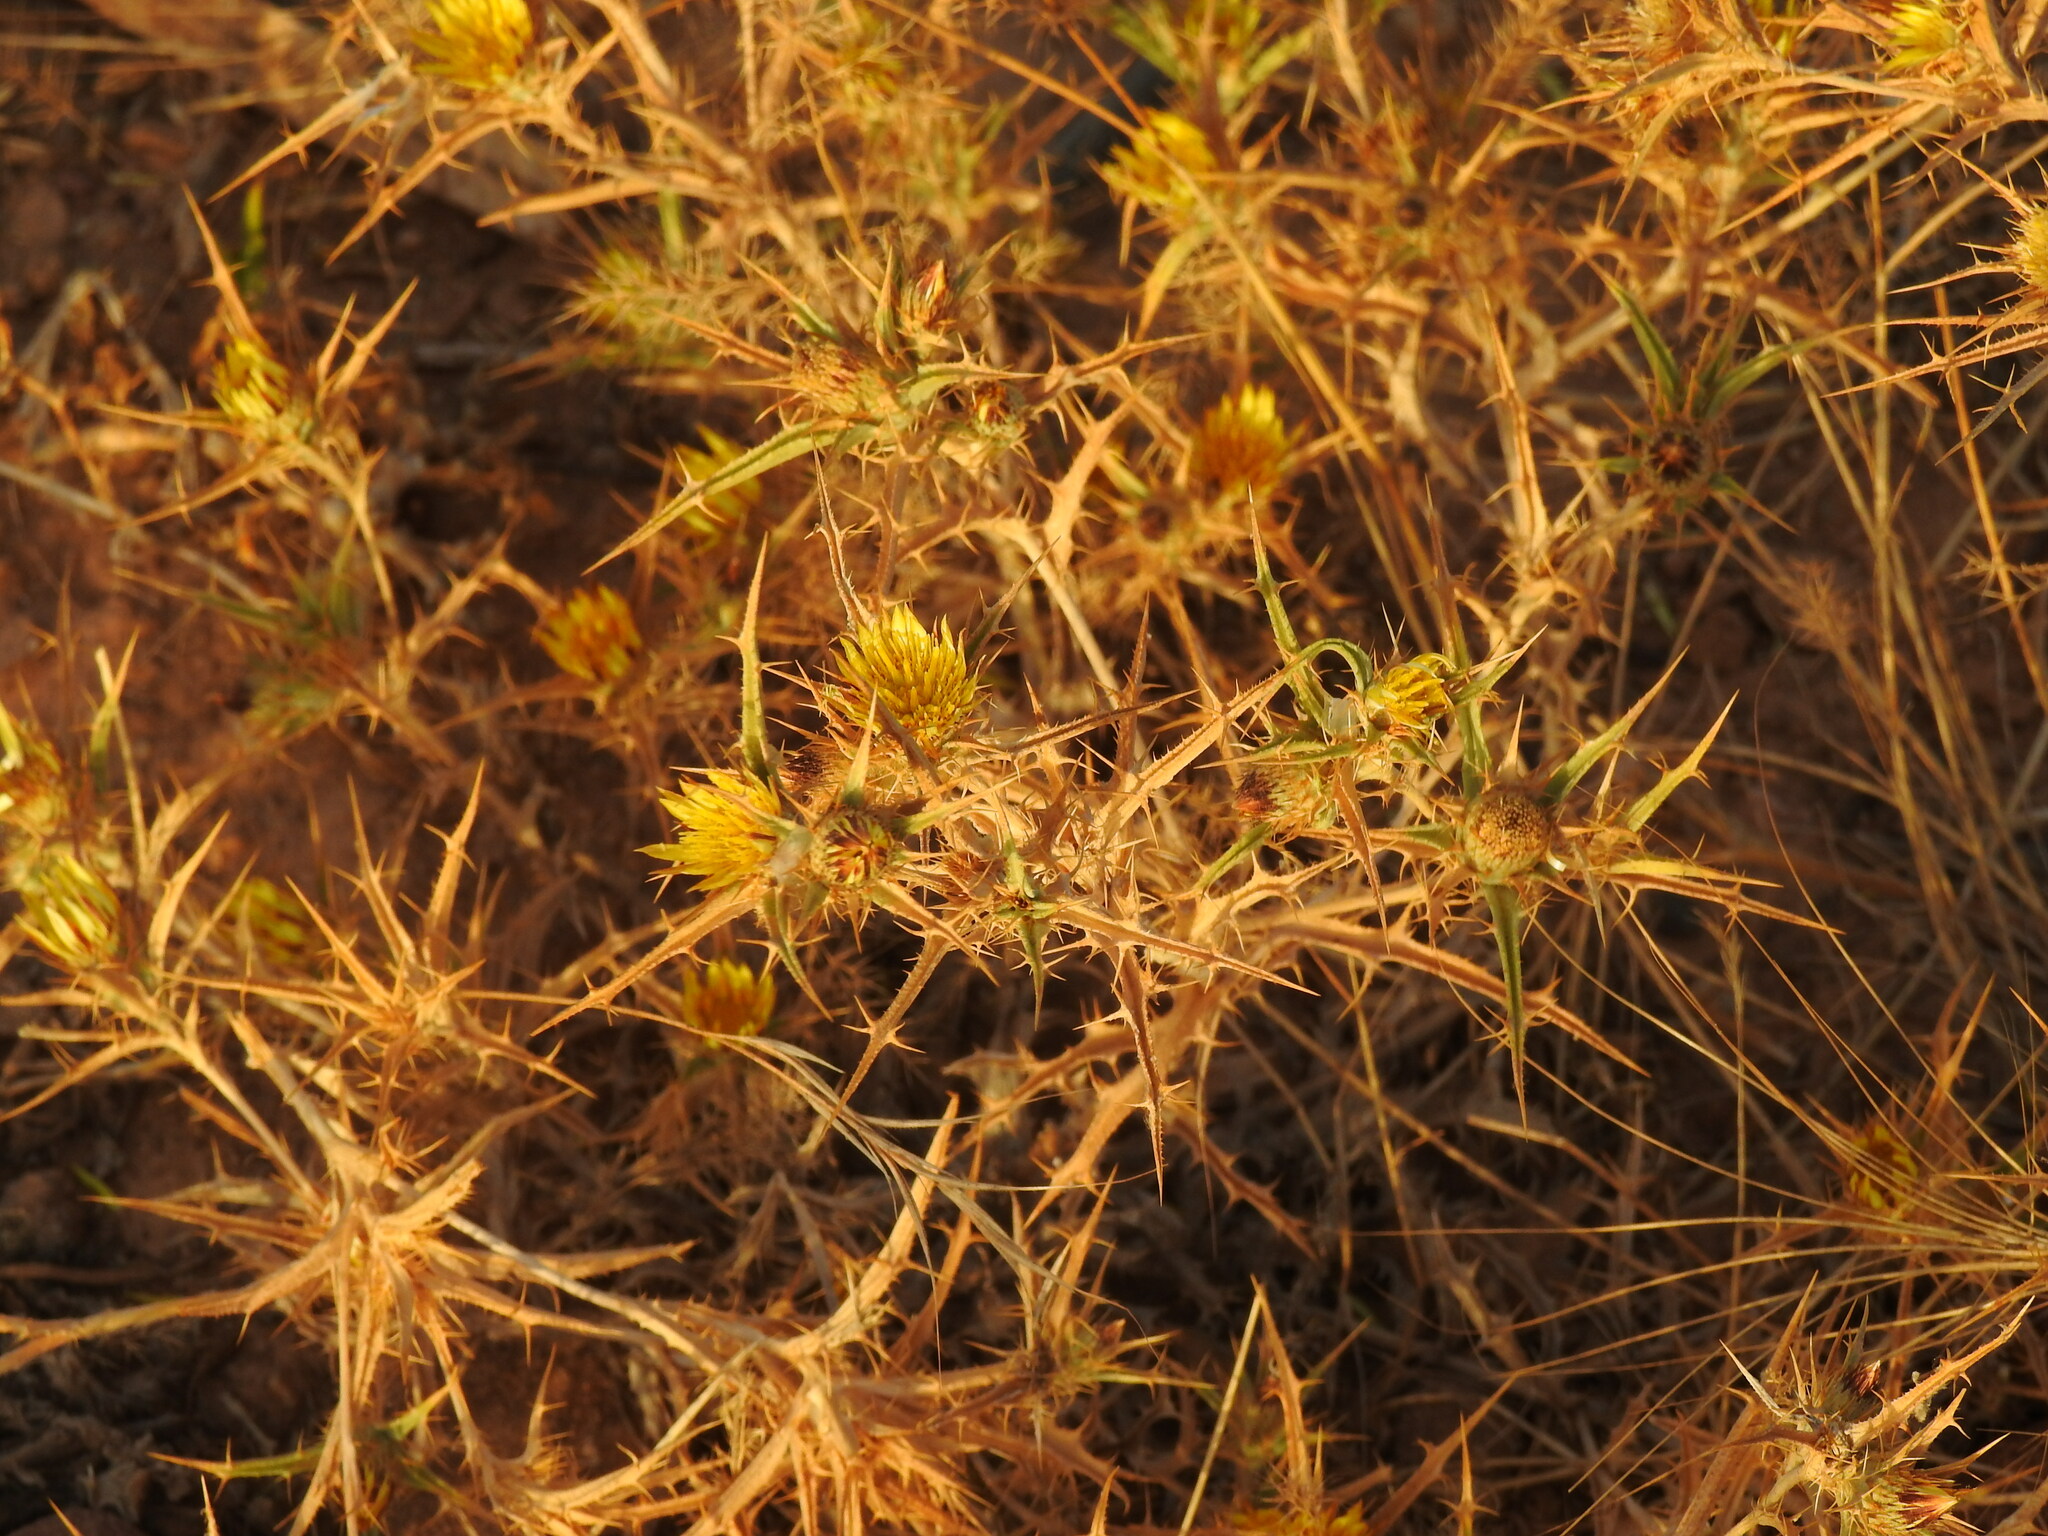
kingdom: Plantae
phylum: Tracheophyta
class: Magnoliopsida
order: Asterales
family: Asteraceae
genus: Carlina
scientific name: Carlina racemosa
